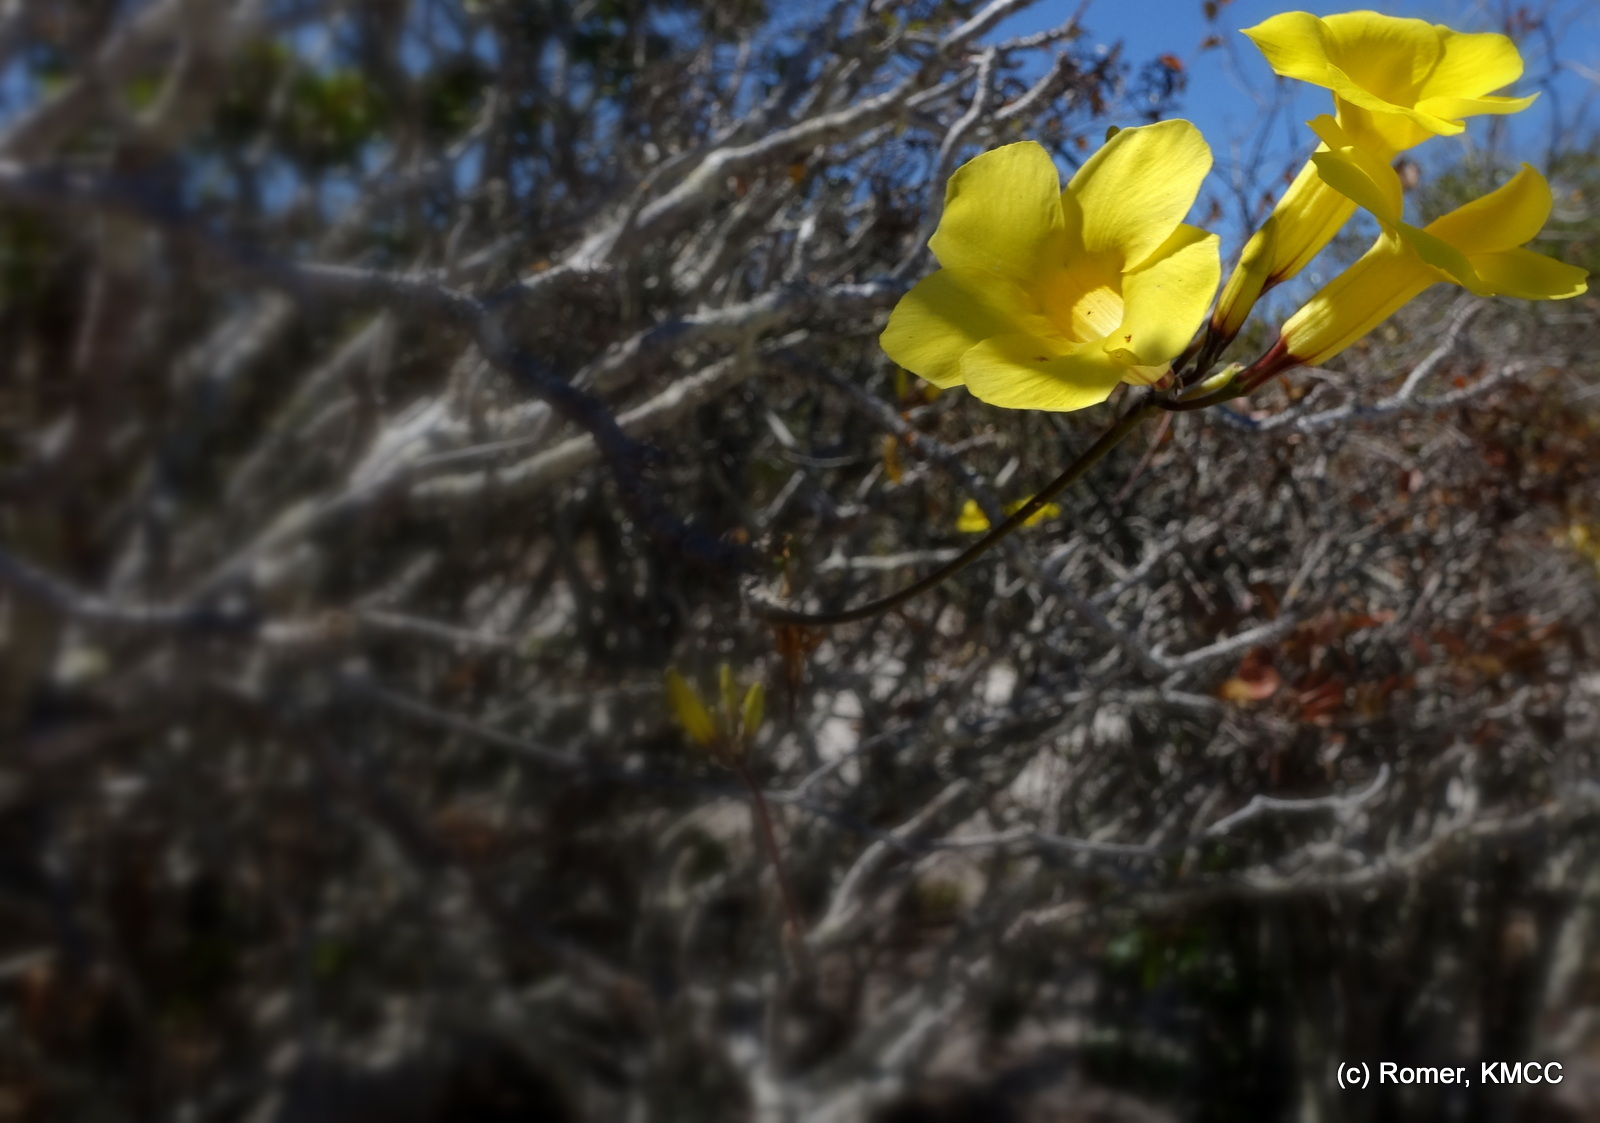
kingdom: Plantae
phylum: Tracheophyta
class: Magnoliopsida
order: Gentianales
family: Apocynaceae
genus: Pachypodium
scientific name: Pachypodium bicolor
